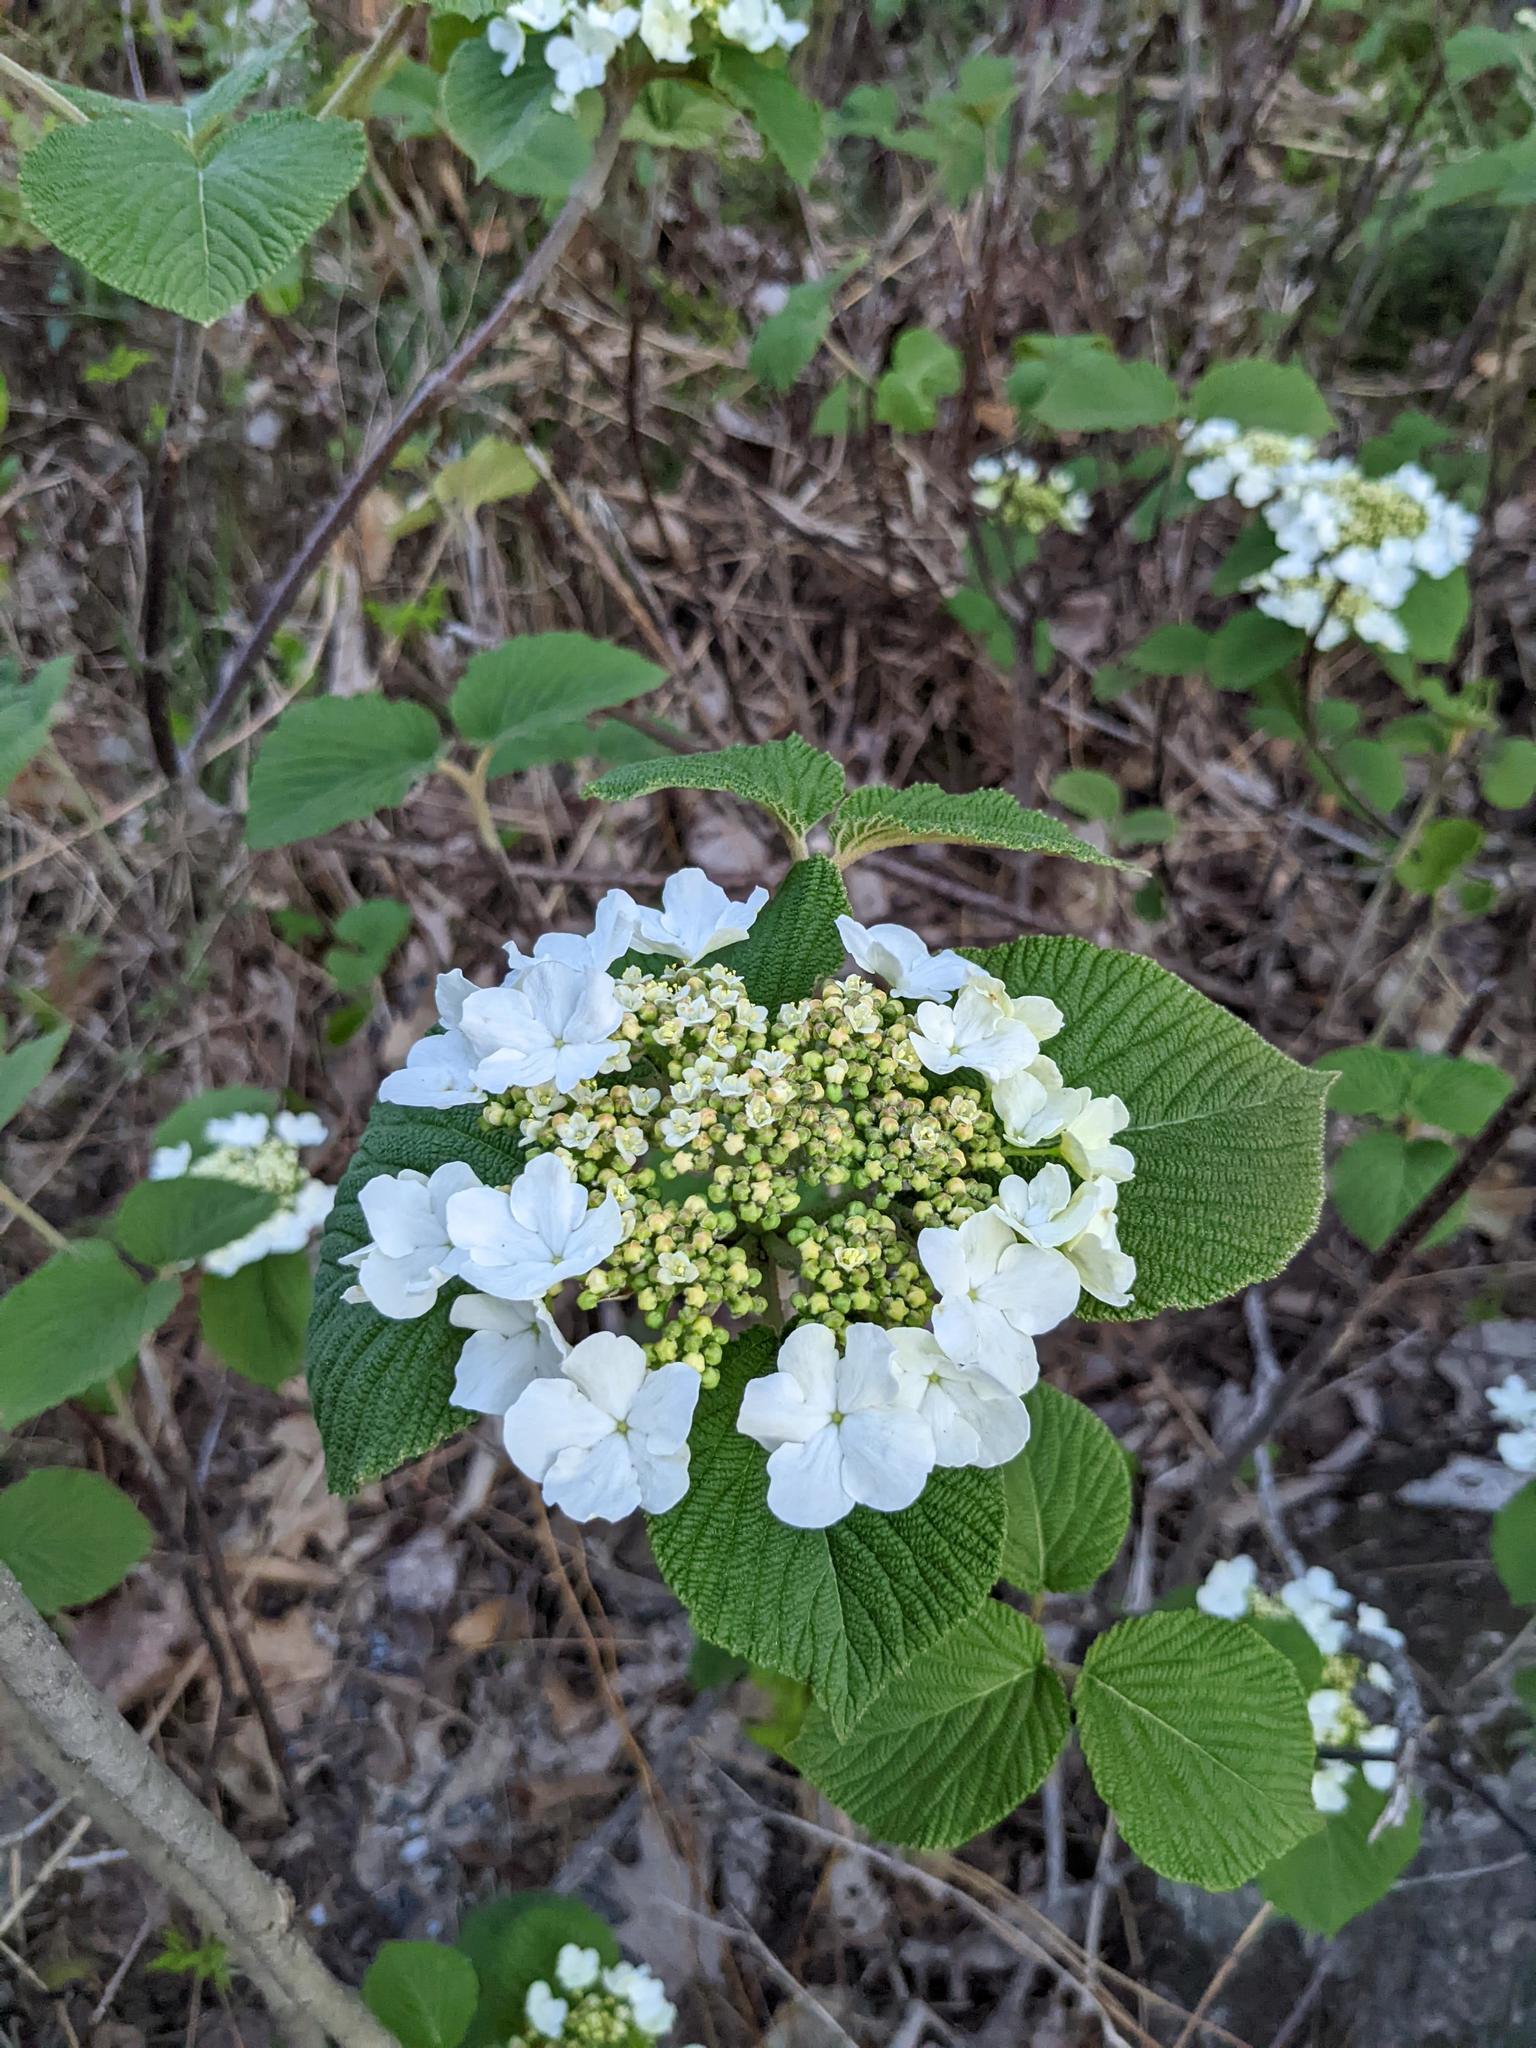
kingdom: Plantae
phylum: Tracheophyta
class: Magnoliopsida
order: Dipsacales
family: Viburnaceae
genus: Viburnum
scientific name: Viburnum lantanoides
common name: Hobblebush
